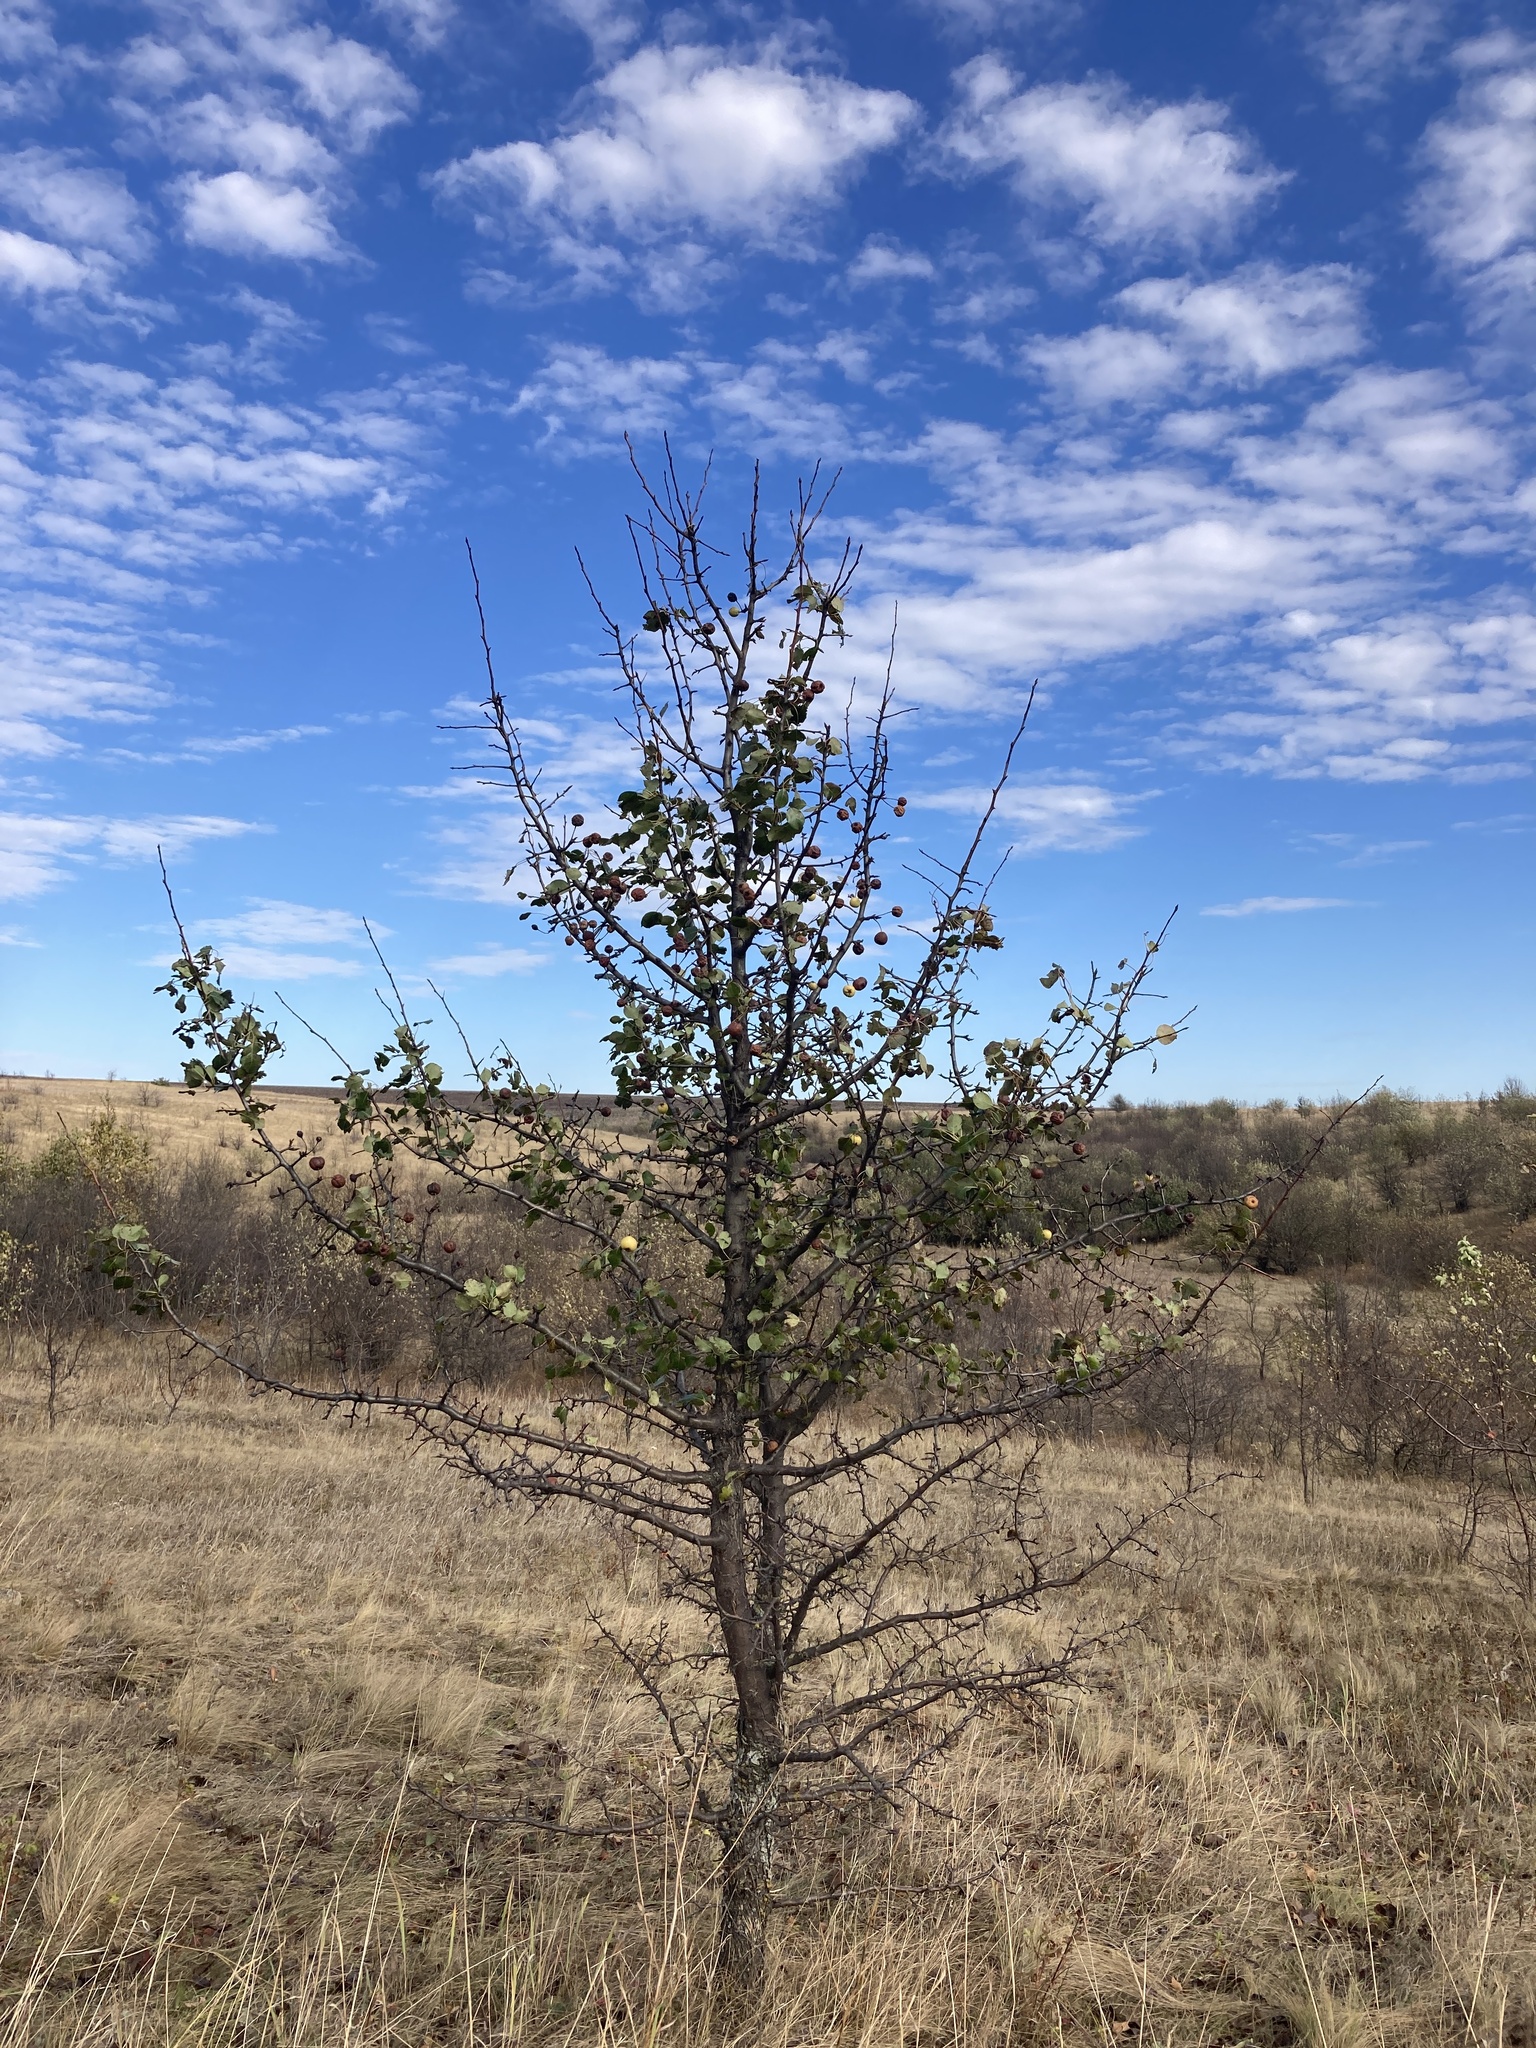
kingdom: Plantae
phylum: Tracheophyta
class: Magnoliopsida
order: Rosales
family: Rosaceae
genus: Pyrus
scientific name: Pyrus communis
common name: Pear
